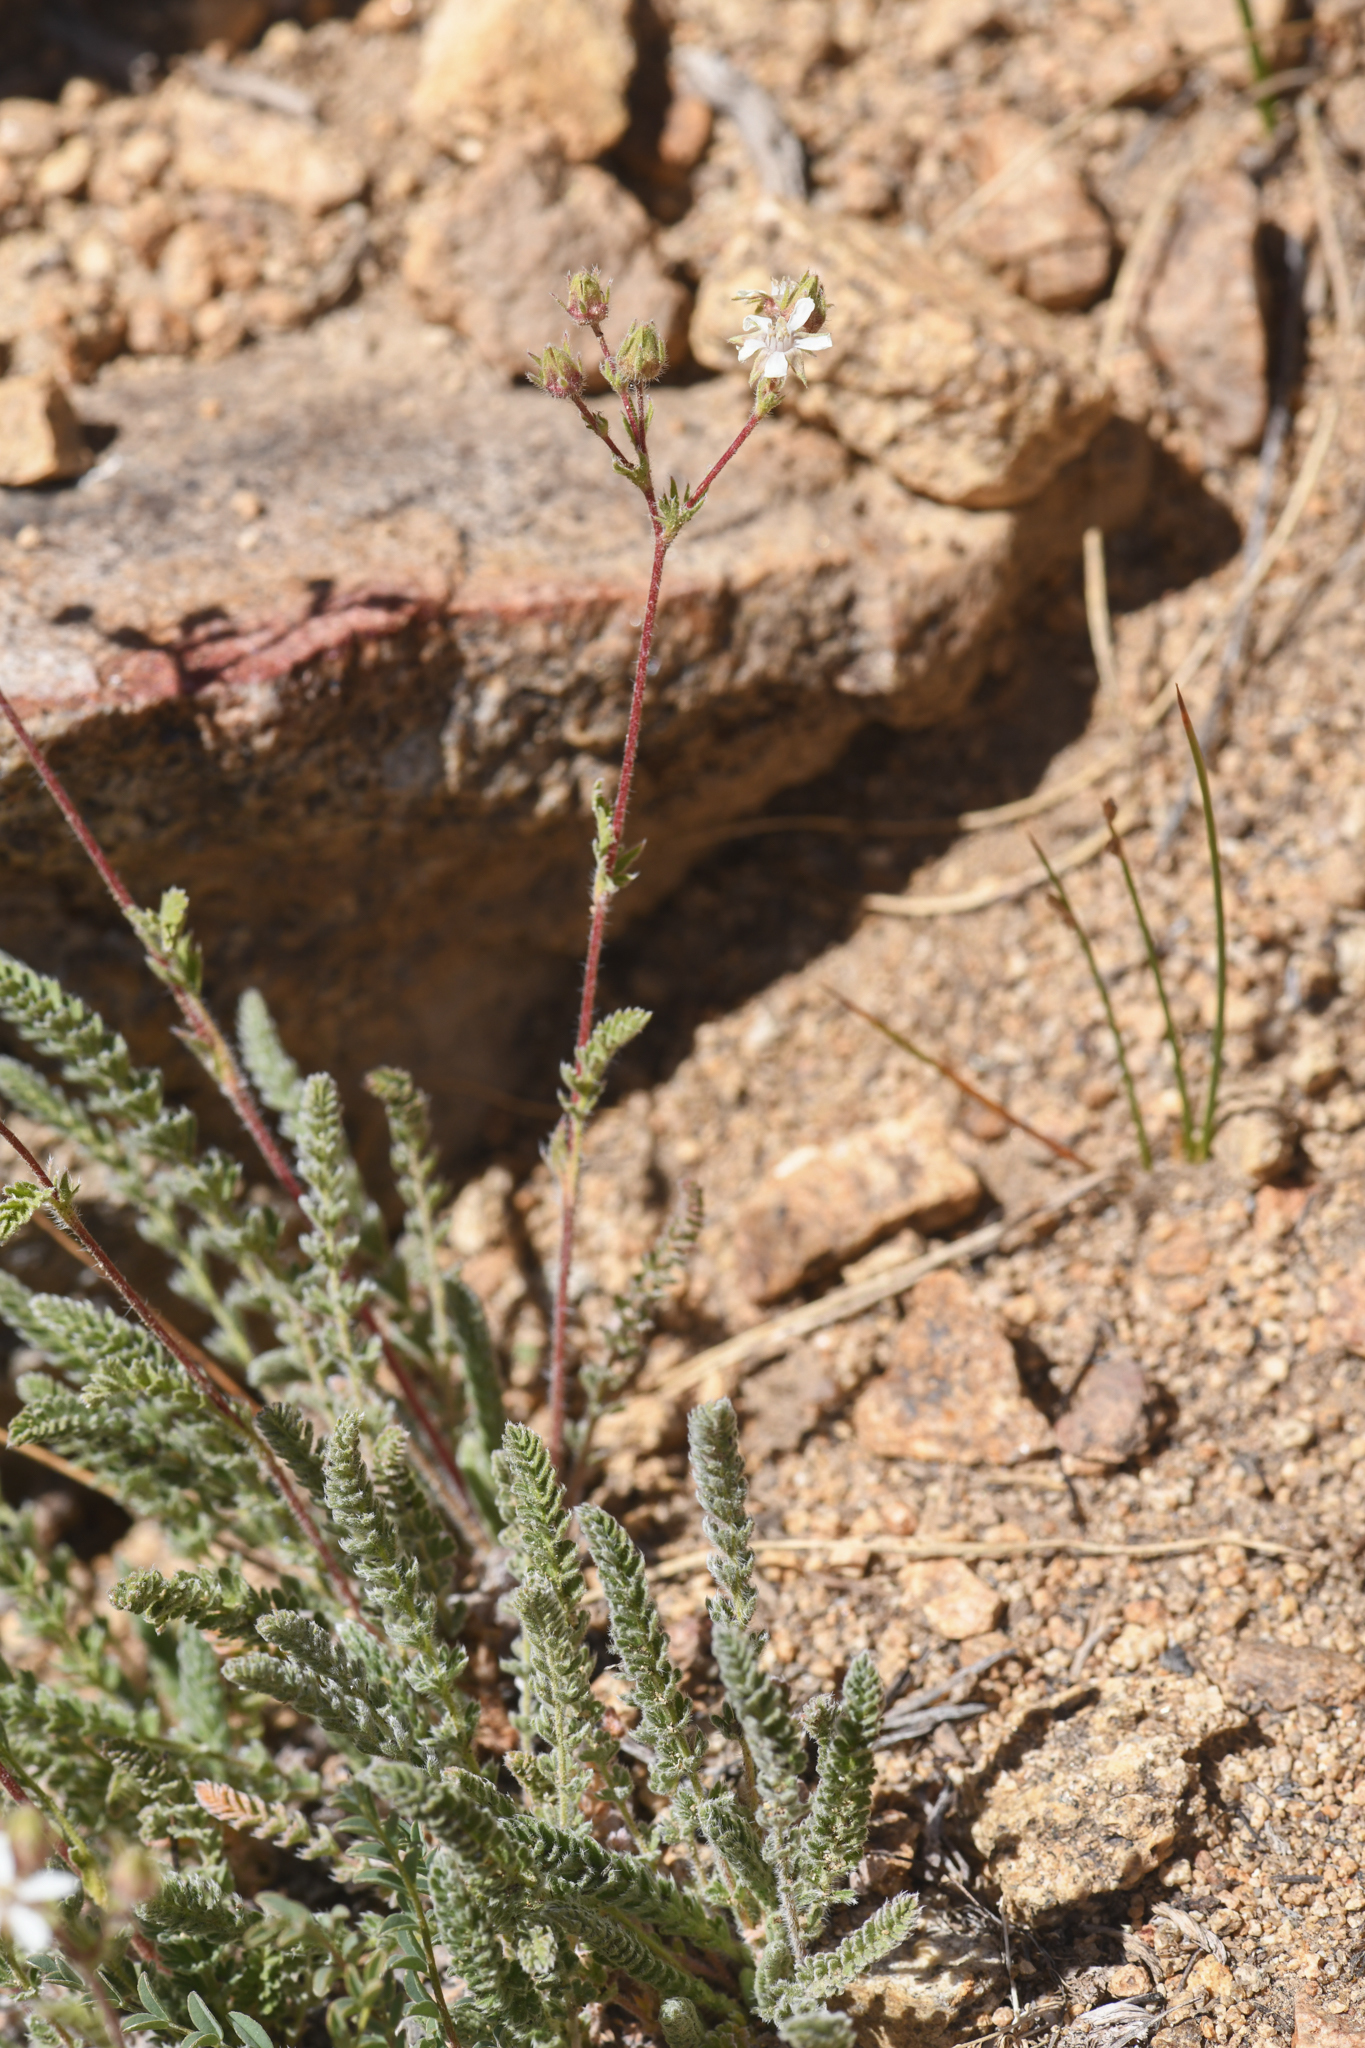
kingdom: Plantae
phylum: Tracheophyta
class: Magnoliopsida
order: Rosales
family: Rosaceae
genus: Potentilla
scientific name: Potentilla hispidula
